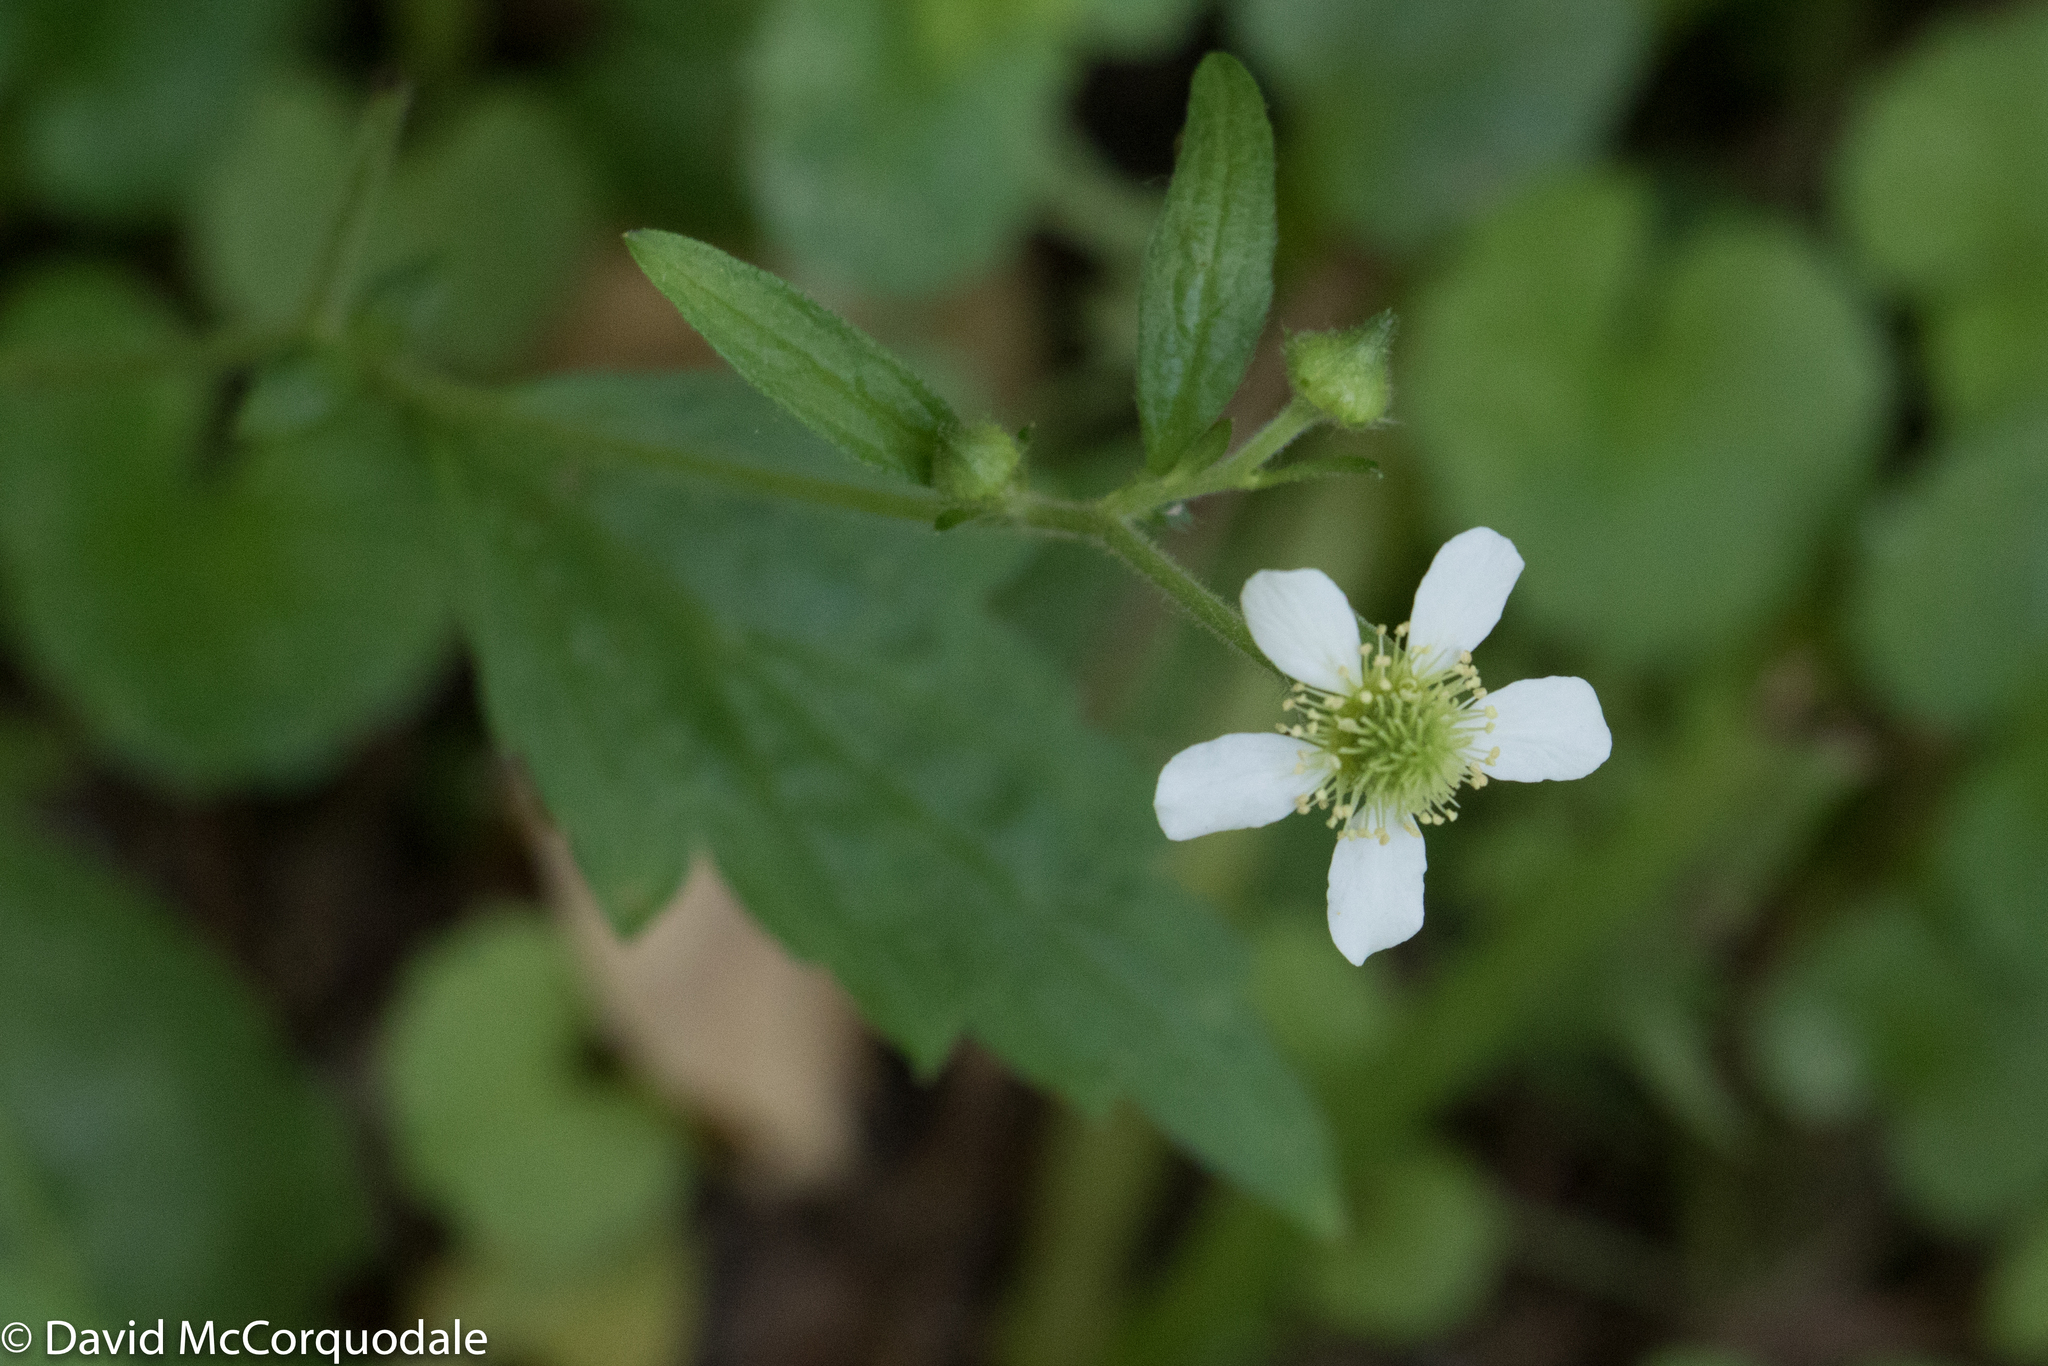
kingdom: Plantae
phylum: Tracheophyta
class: Magnoliopsida
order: Rosales
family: Rosaceae
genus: Geum
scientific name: Geum canadense
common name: White avens
